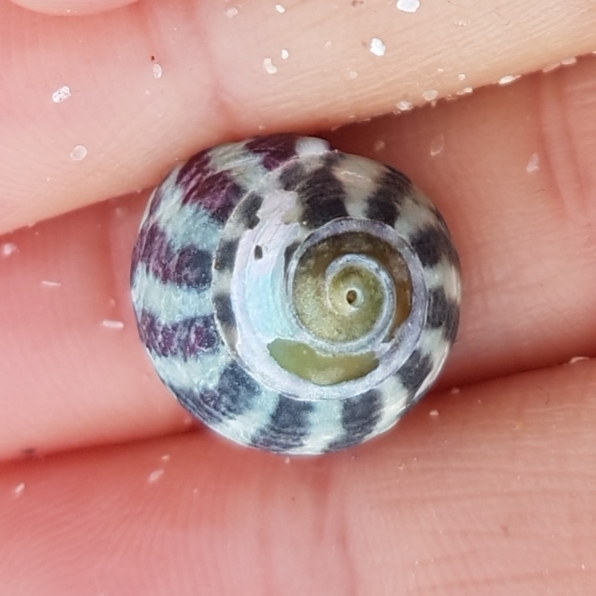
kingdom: Animalia
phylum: Mollusca
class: Gastropoda
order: Trochida
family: Trochidae
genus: Steromphala
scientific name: Steromphala umbilicalis
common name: Flat top shell
